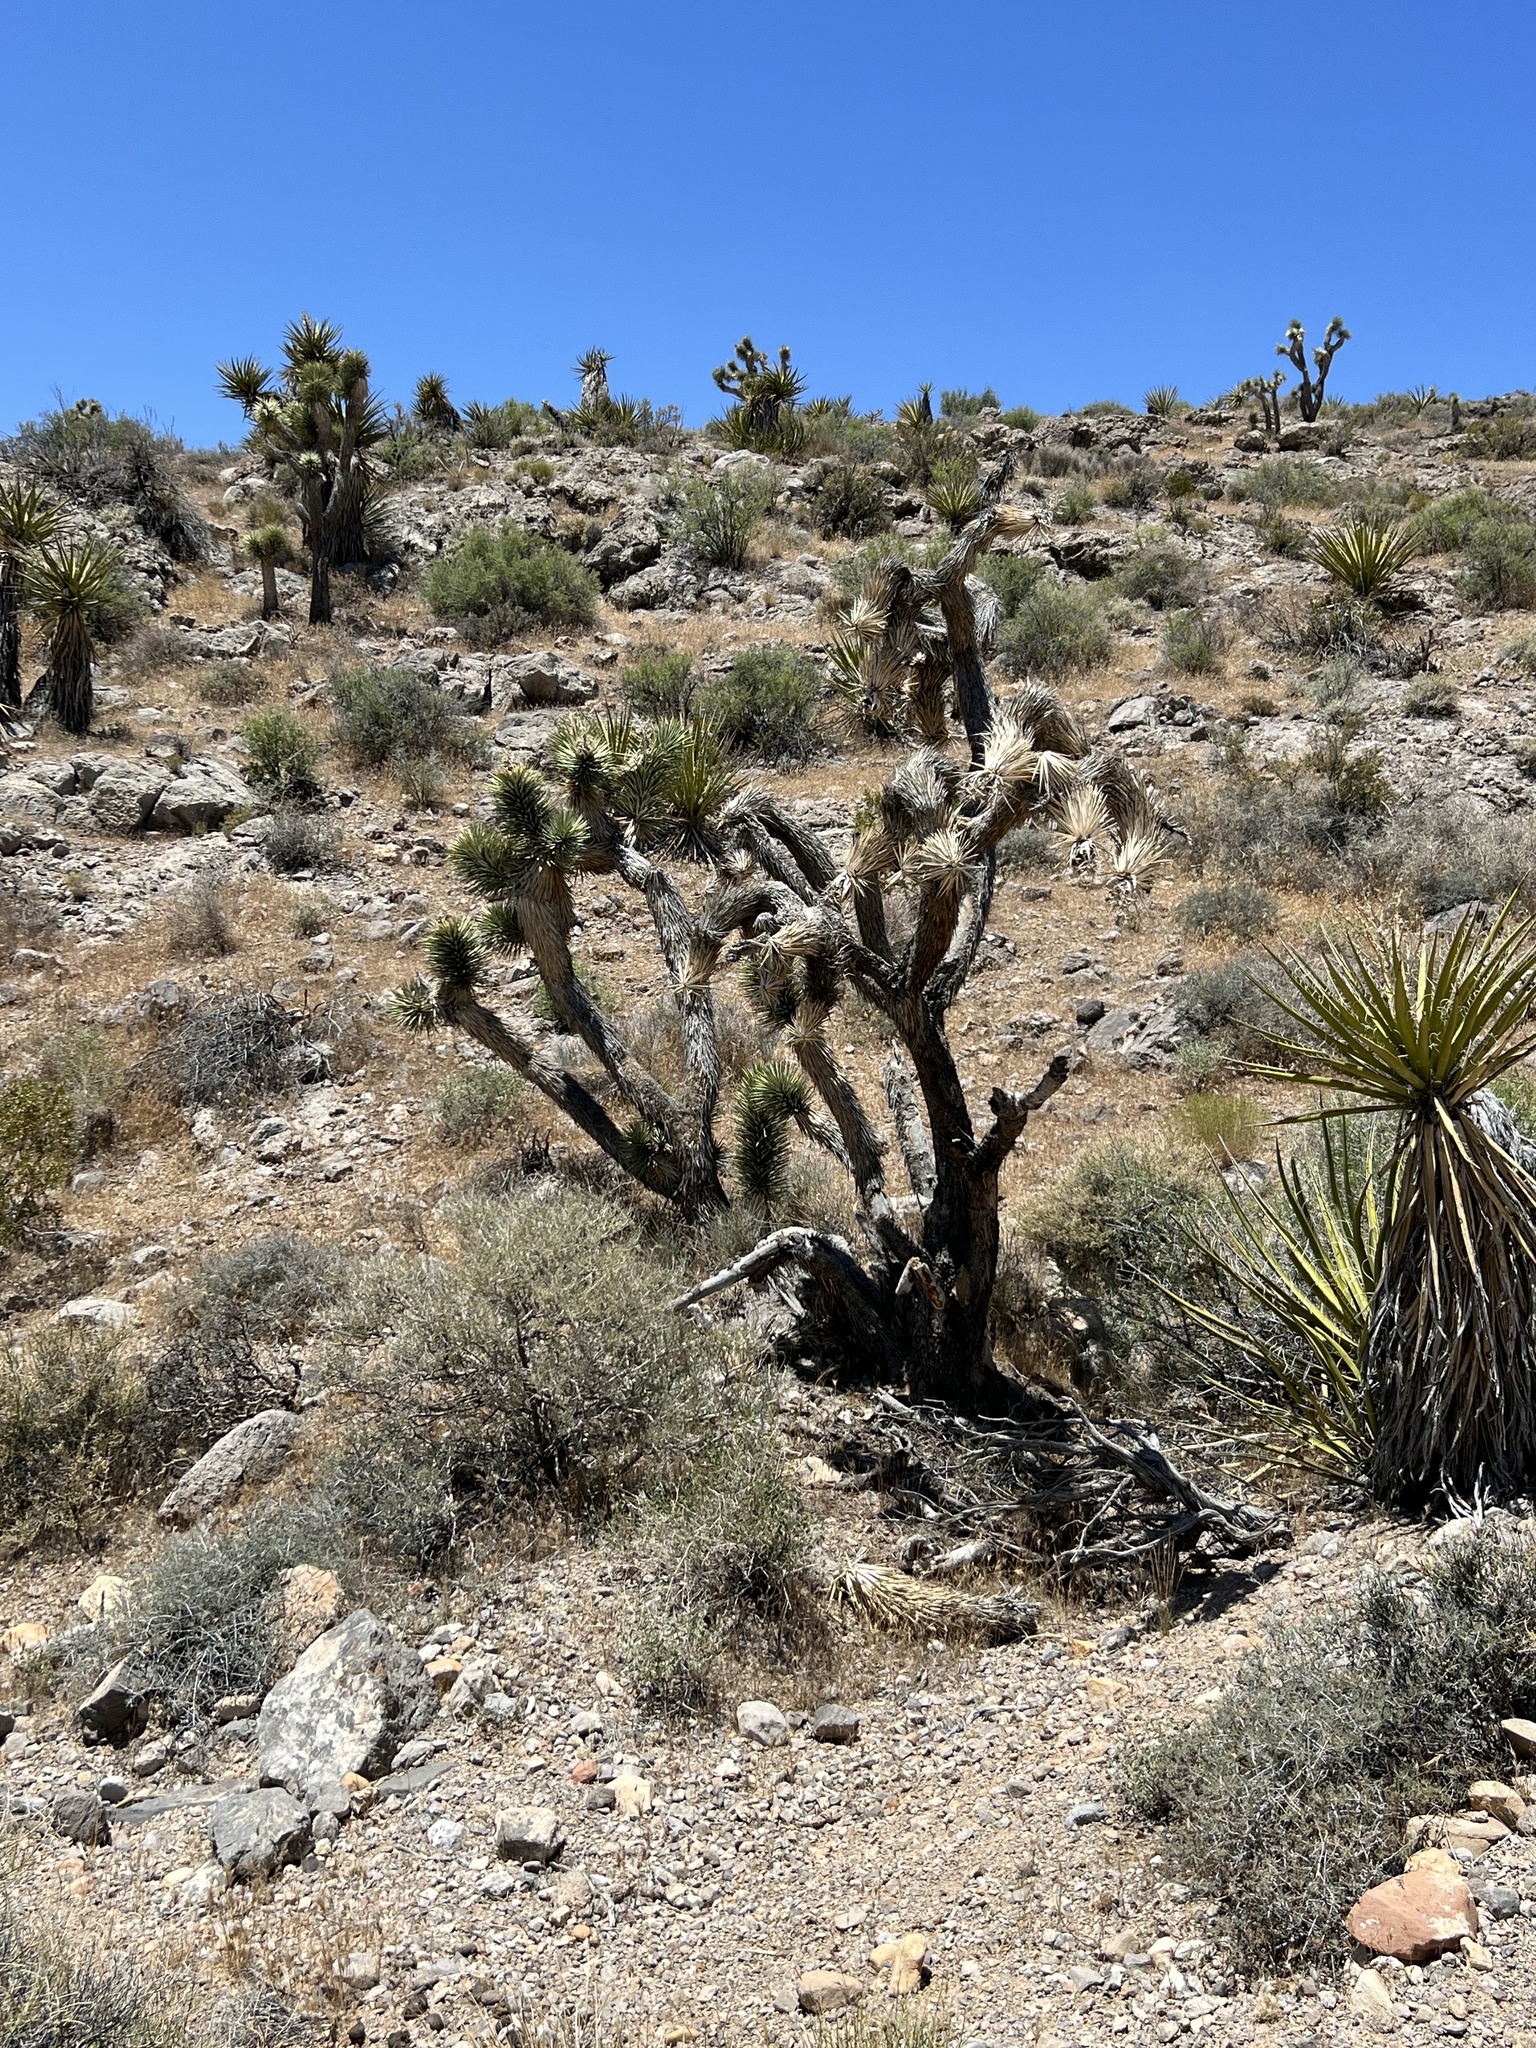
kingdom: Plantae
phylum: Tracheophyta
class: Liliopsida
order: Asparagales
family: Asparagaceae
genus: Yucca
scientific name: Yucca brevifolia
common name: Joshua tree
